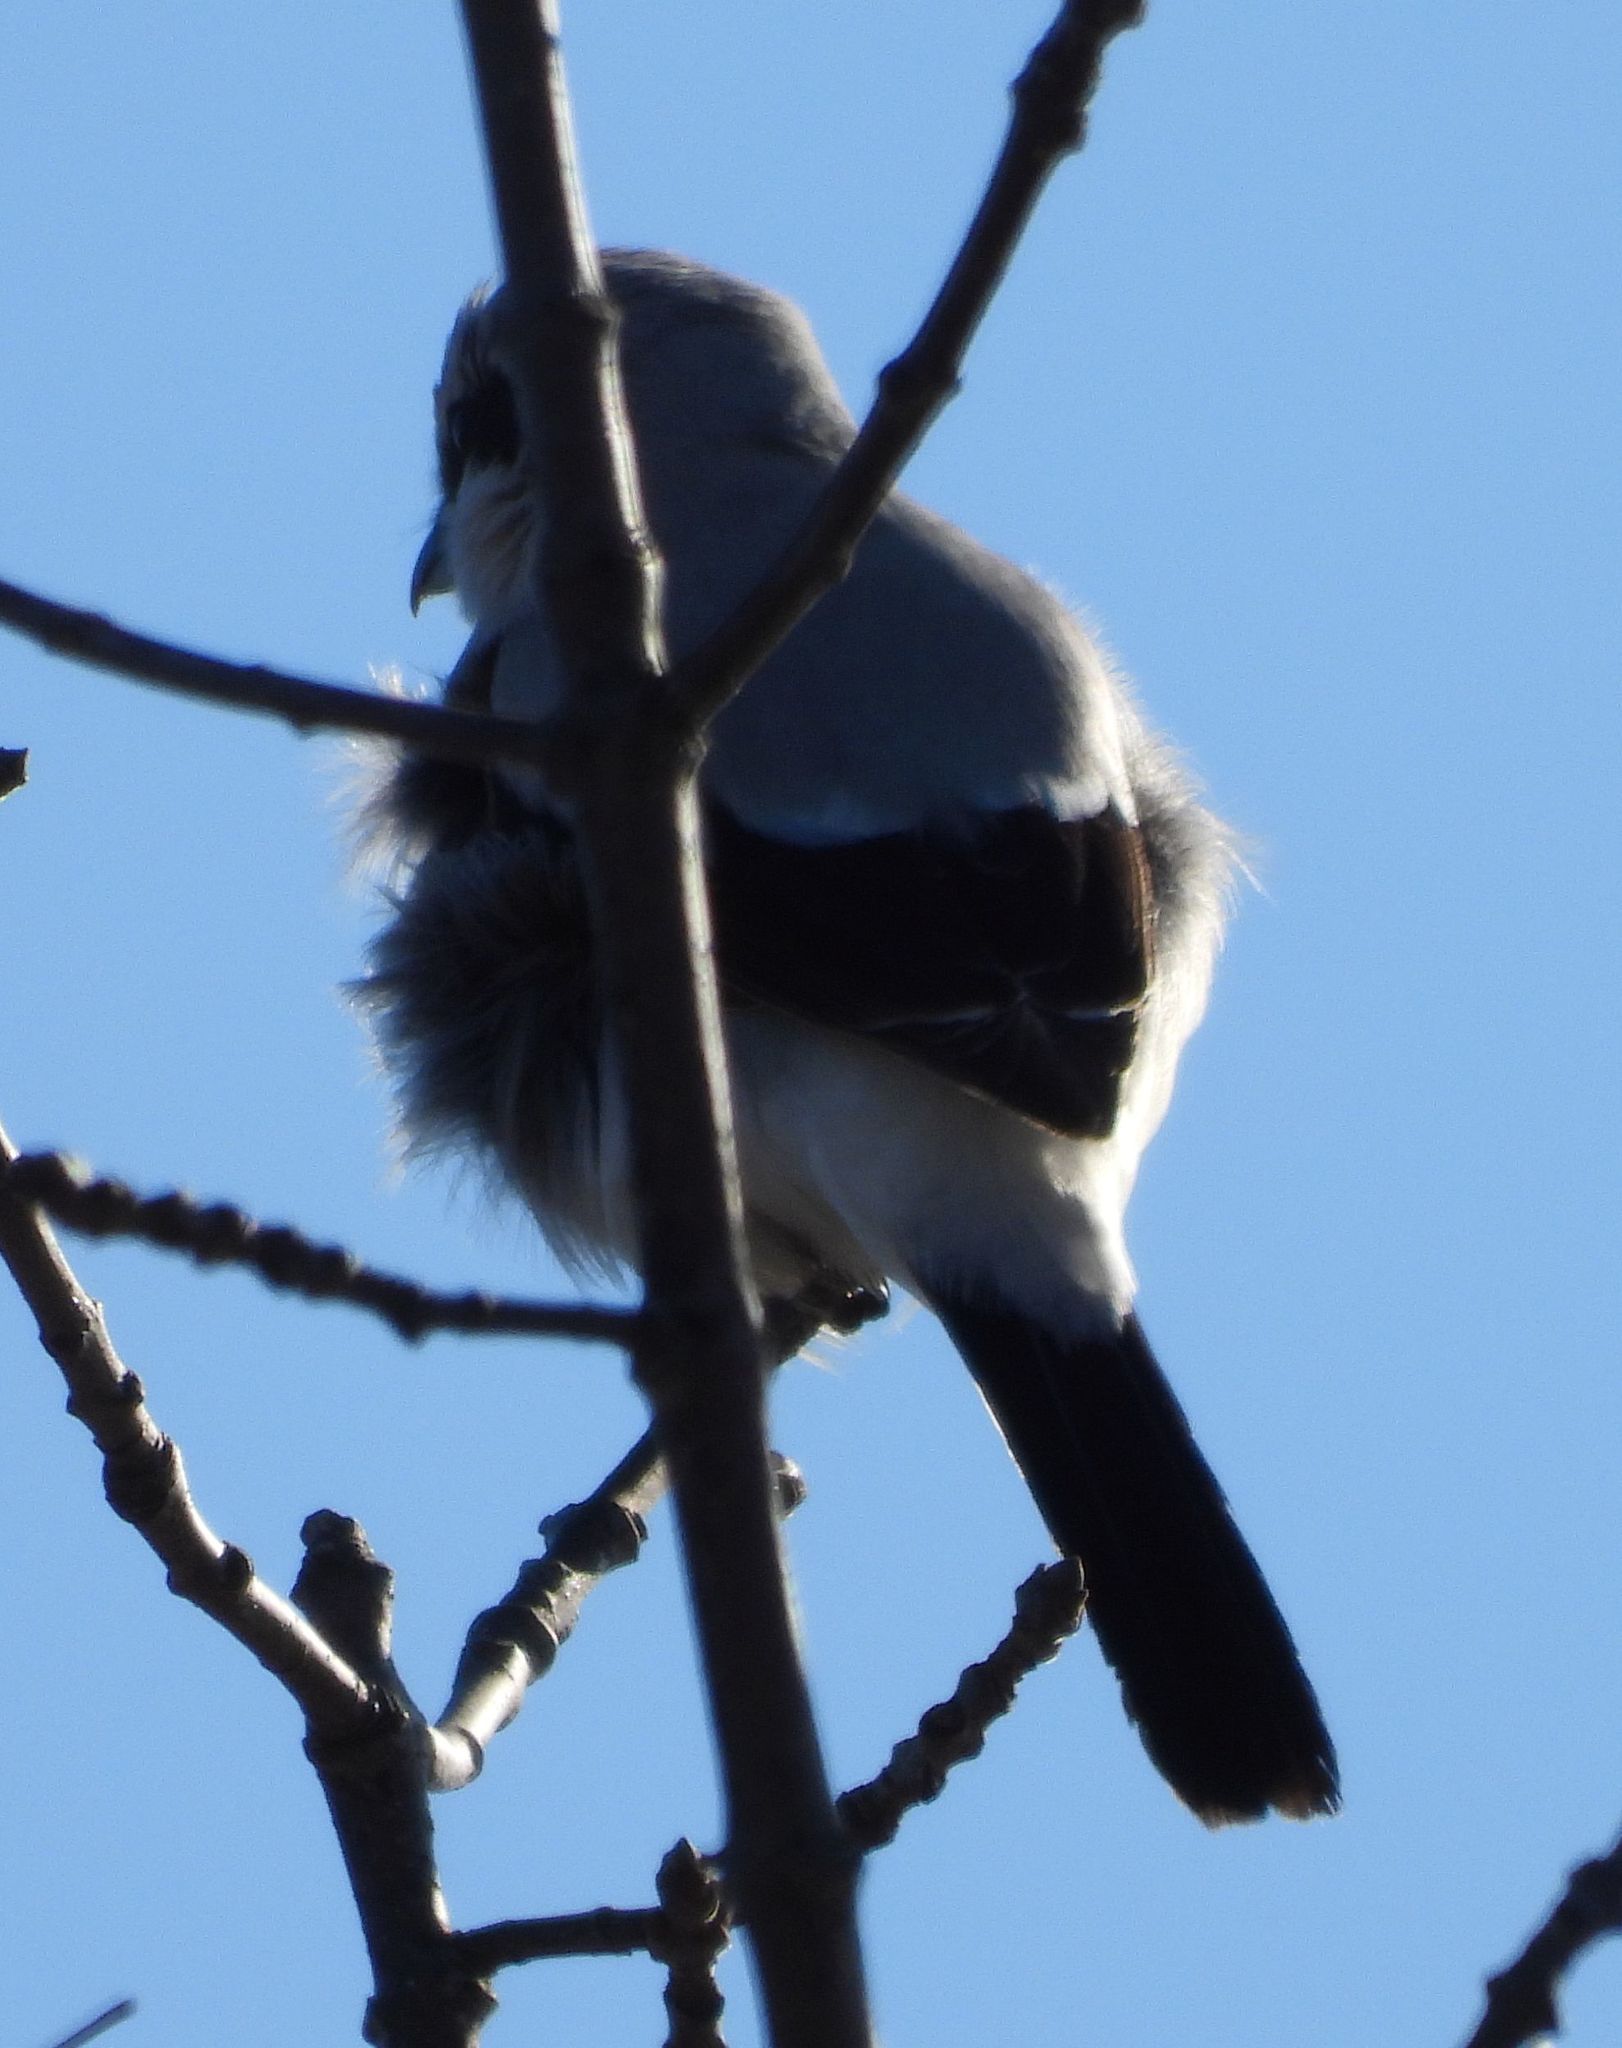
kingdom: Animalia
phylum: Chordata
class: Aves
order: Passeriformes
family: Laniidae
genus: Lanius
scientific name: Lanius borealis
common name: Northern shrike
